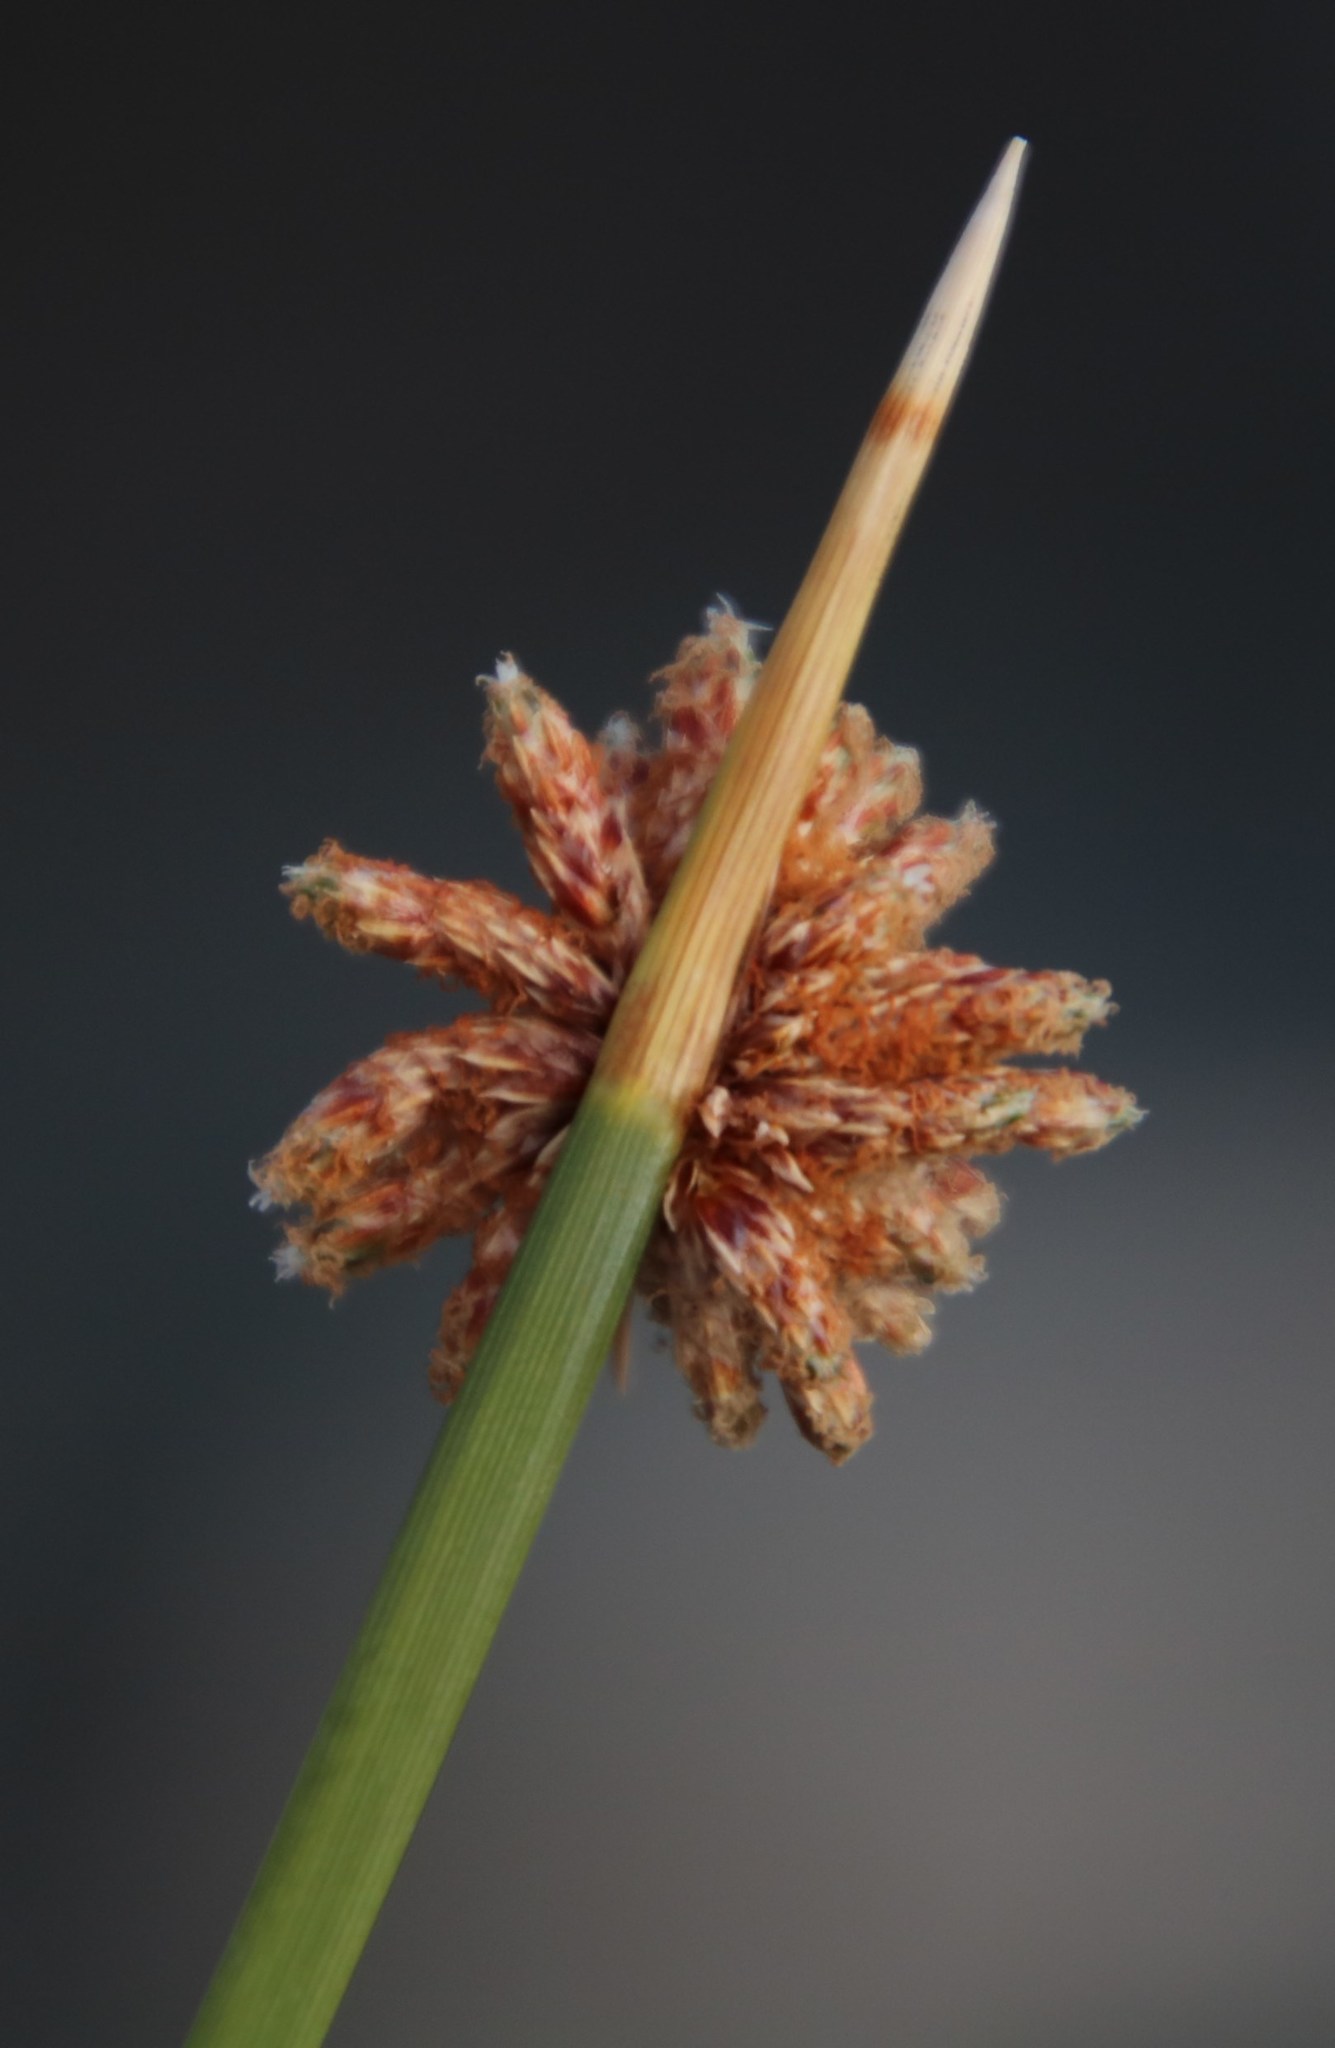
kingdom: Plantae
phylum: Tracheophyta
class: Liliopsida
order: Poales
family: Cyperaceae
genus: Afroscirpoides
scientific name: Afroscirpoides dioeca
